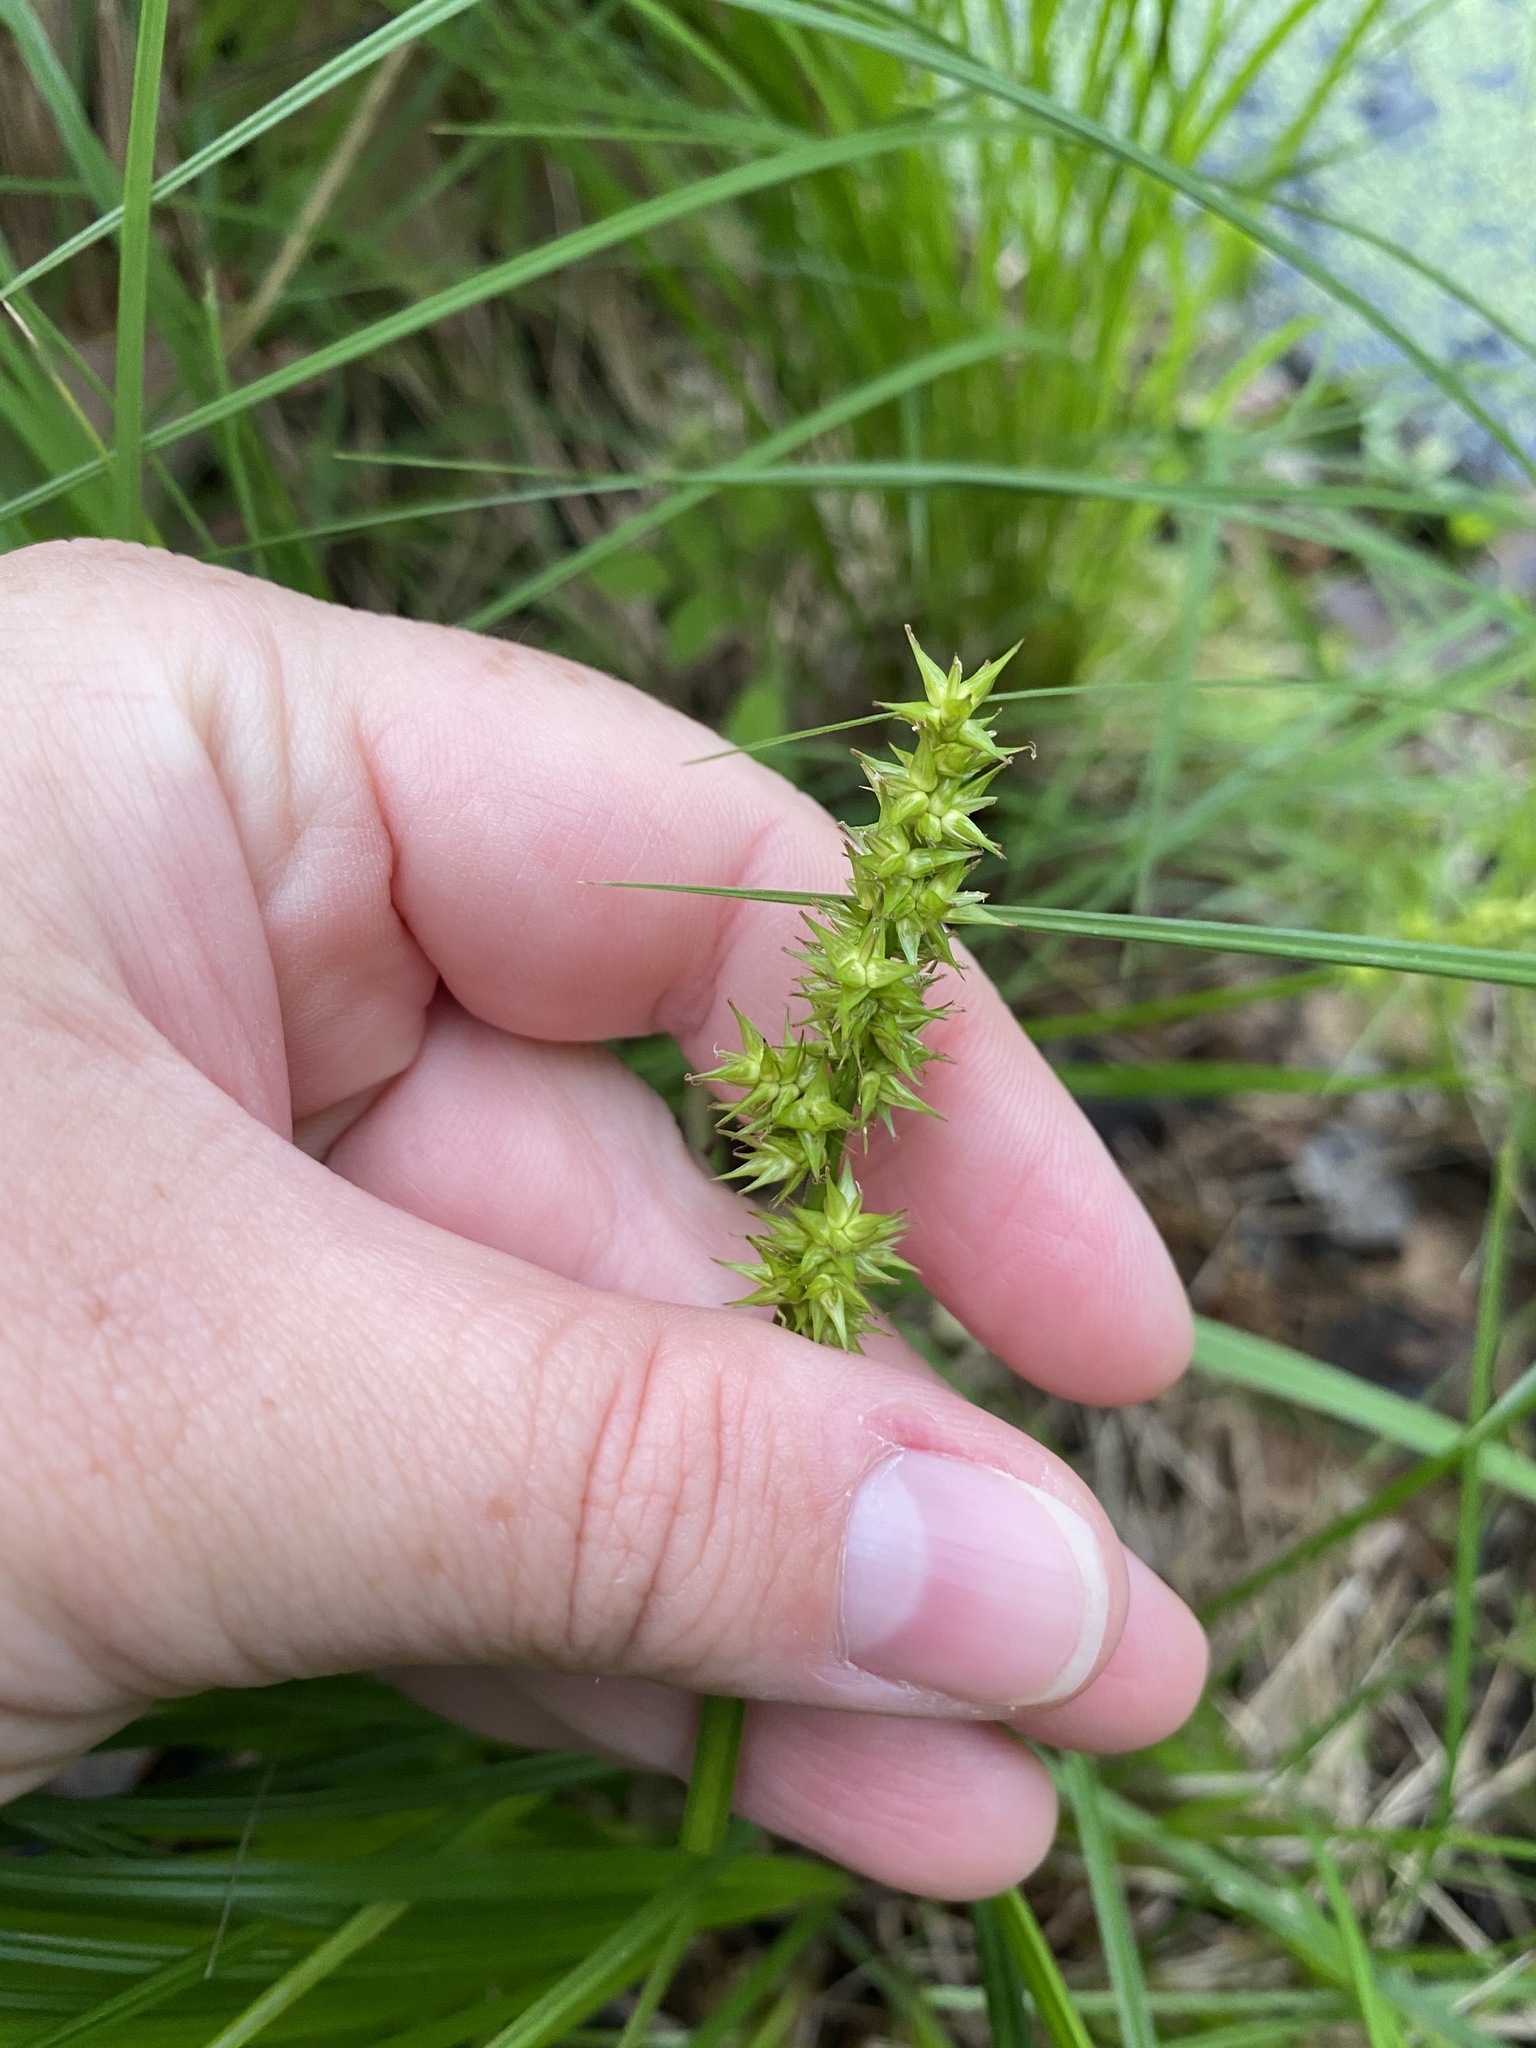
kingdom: Plantae
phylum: Tracheophyta
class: Liliopsida
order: Poales
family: Cyperaceae
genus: Carex
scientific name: Carex stipata
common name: Awl-fruited sedge
